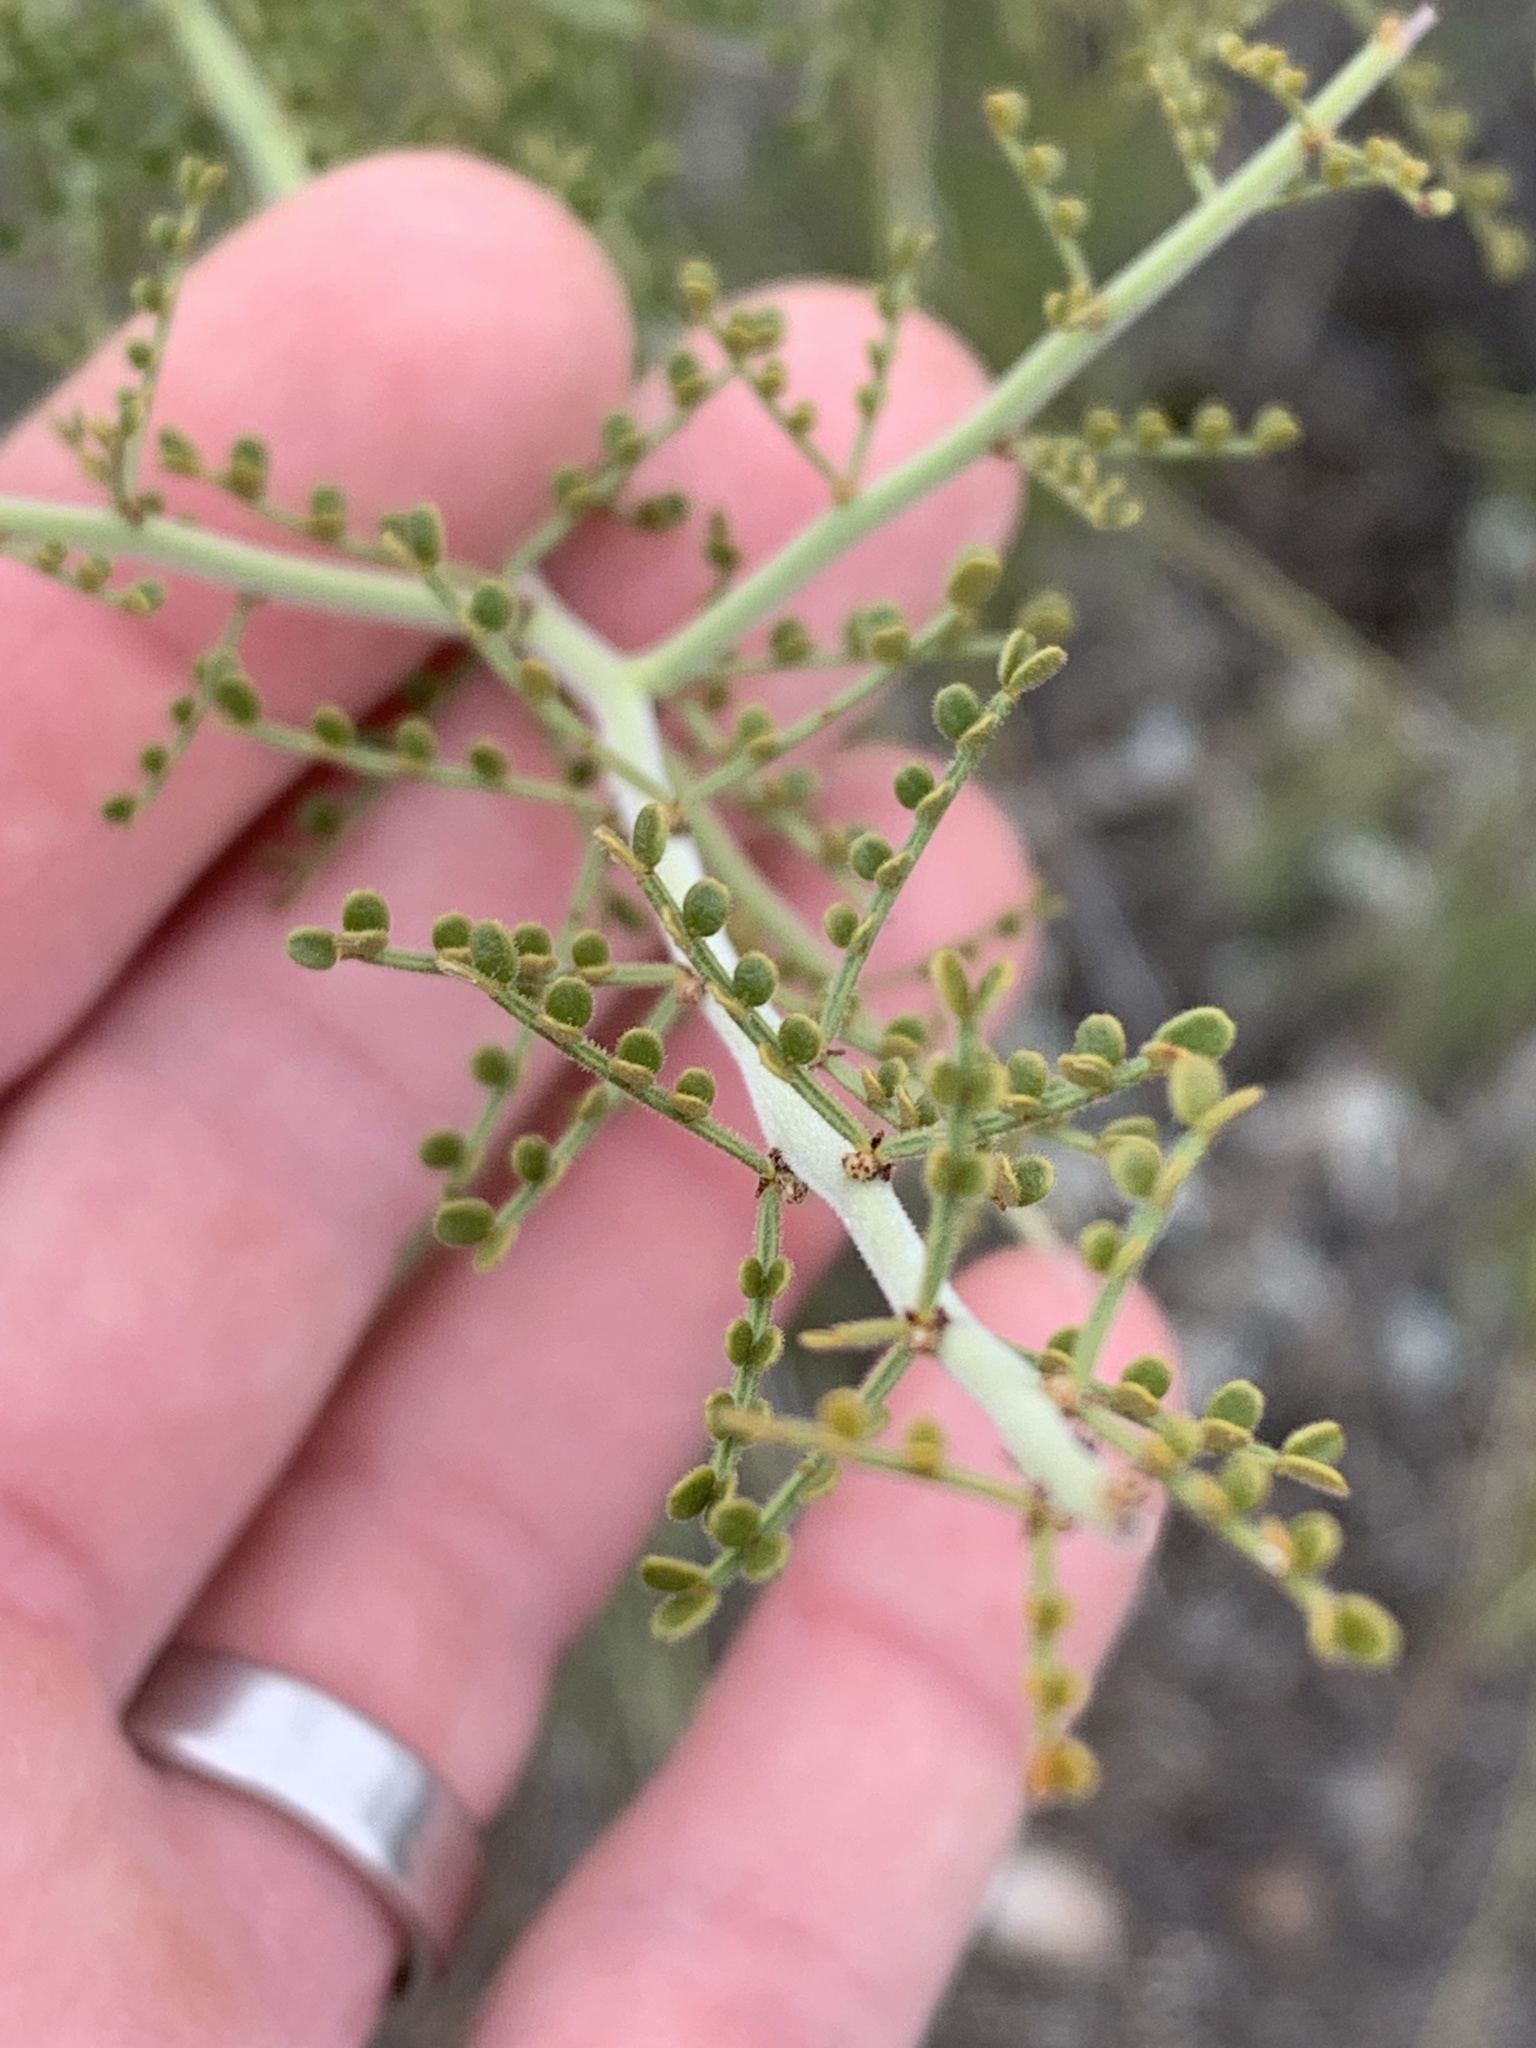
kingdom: Plantae
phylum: Tracheophyta
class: Magnoliopsida
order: Fabales
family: Fabaceae
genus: Parkinsonia
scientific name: Parkinsonia microphylla
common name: Yellow paloverde
